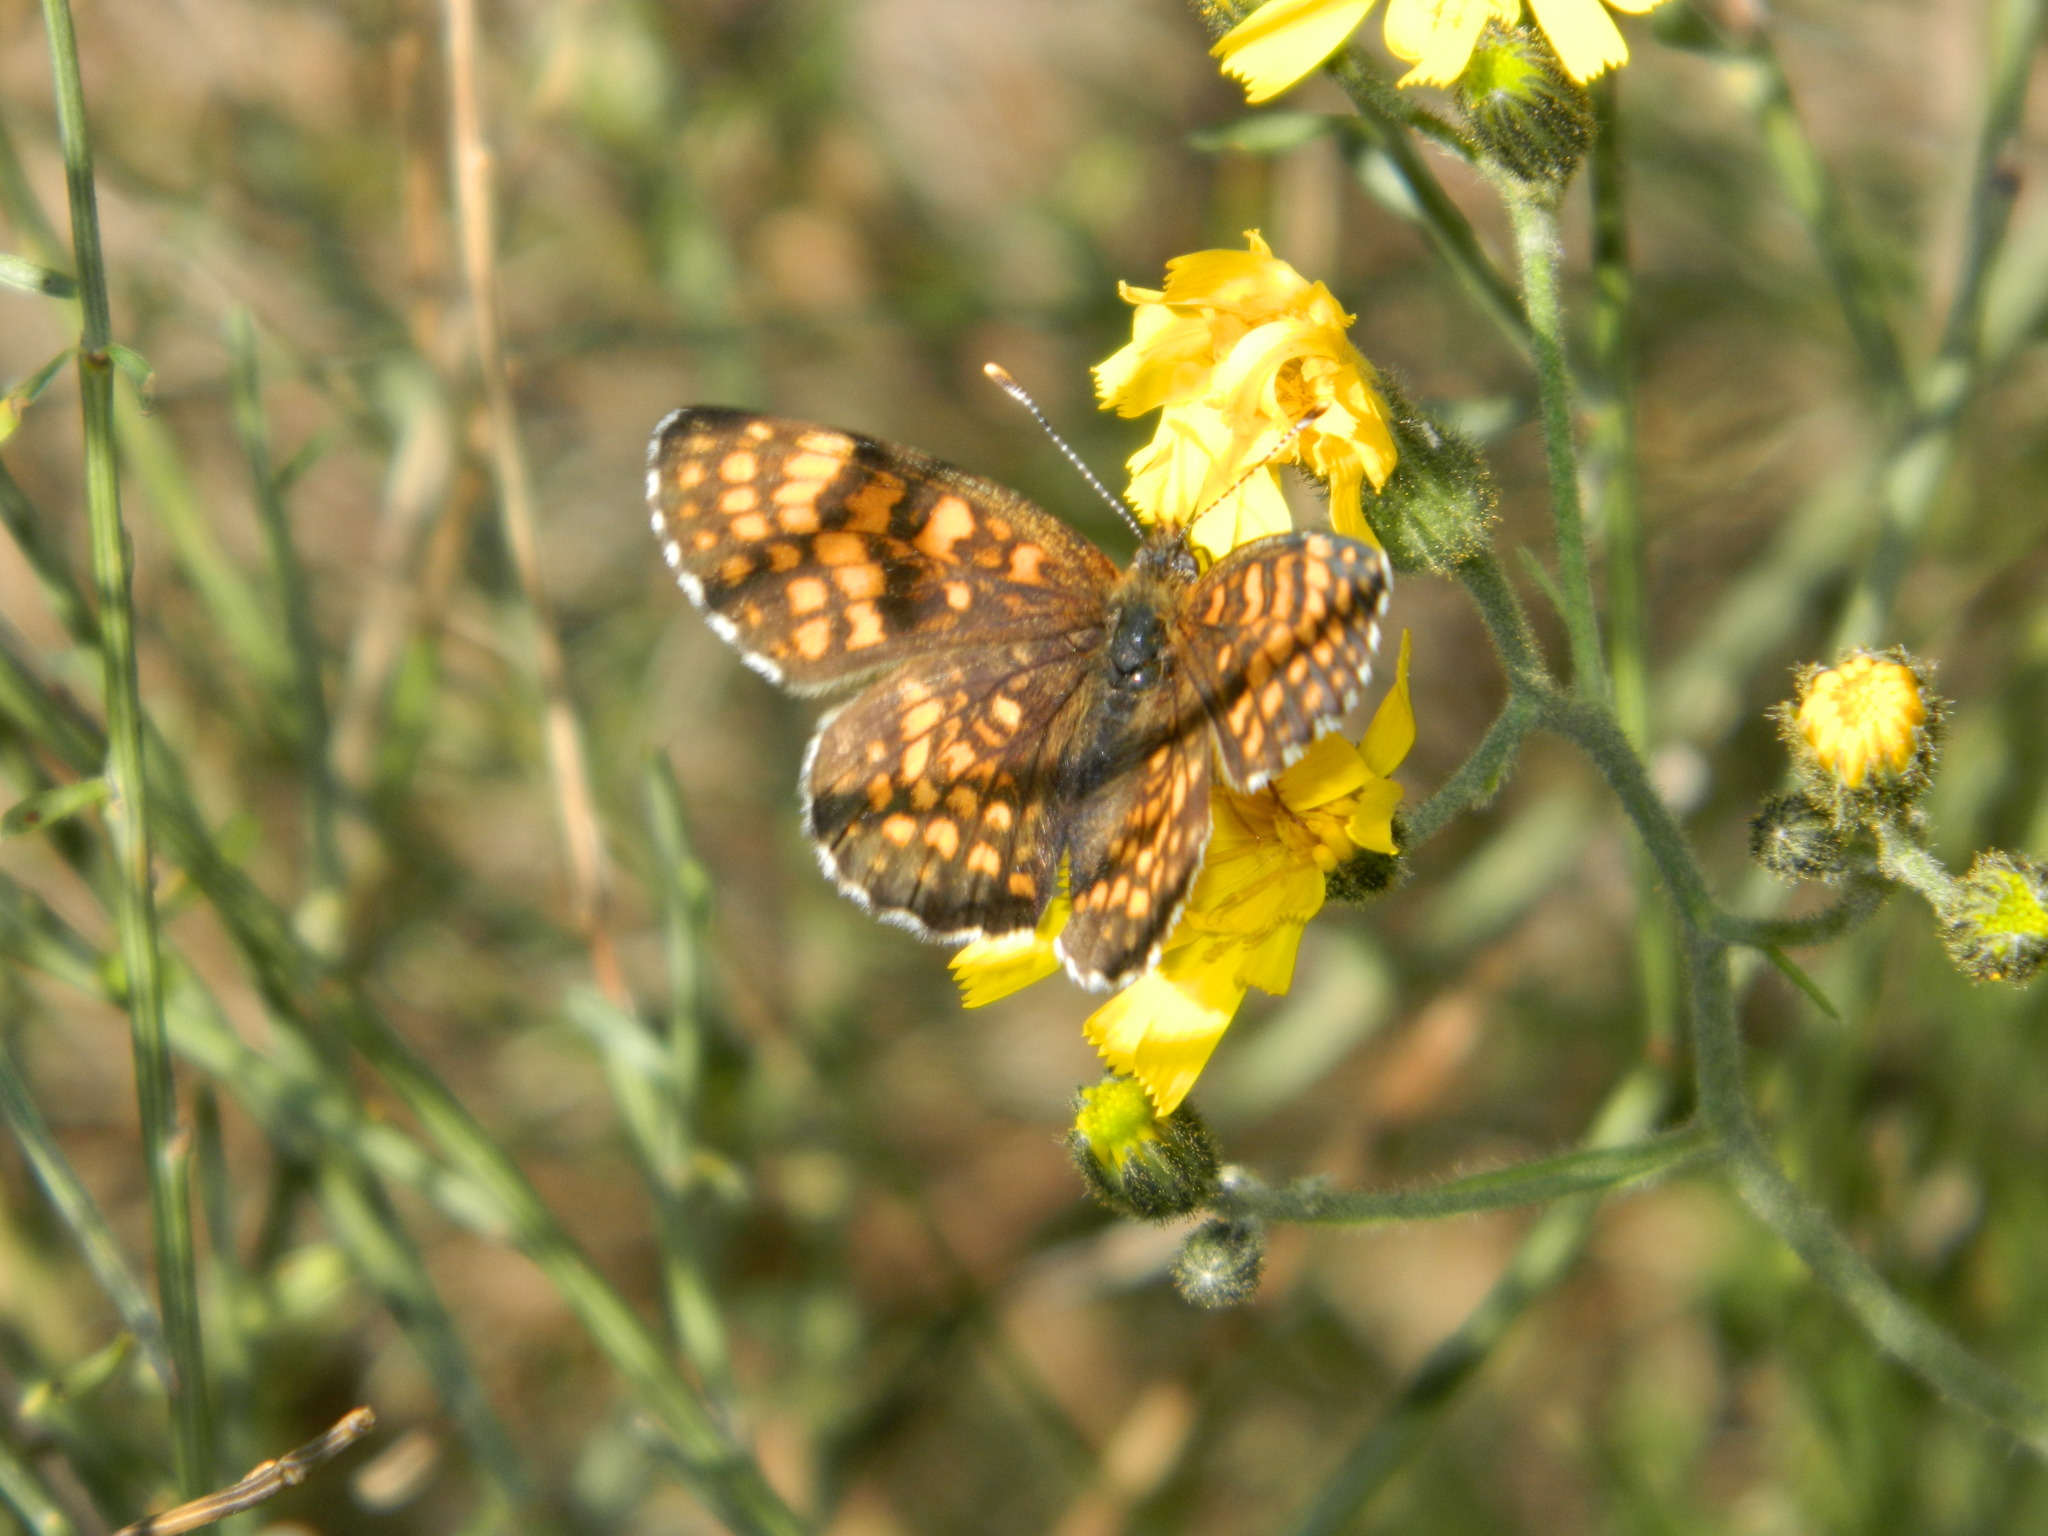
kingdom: Animalia
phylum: Arthropoda
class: Insecta
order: Lepidoptera
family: Nymphalidae
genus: Mellicta
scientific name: Mellicta athalia
